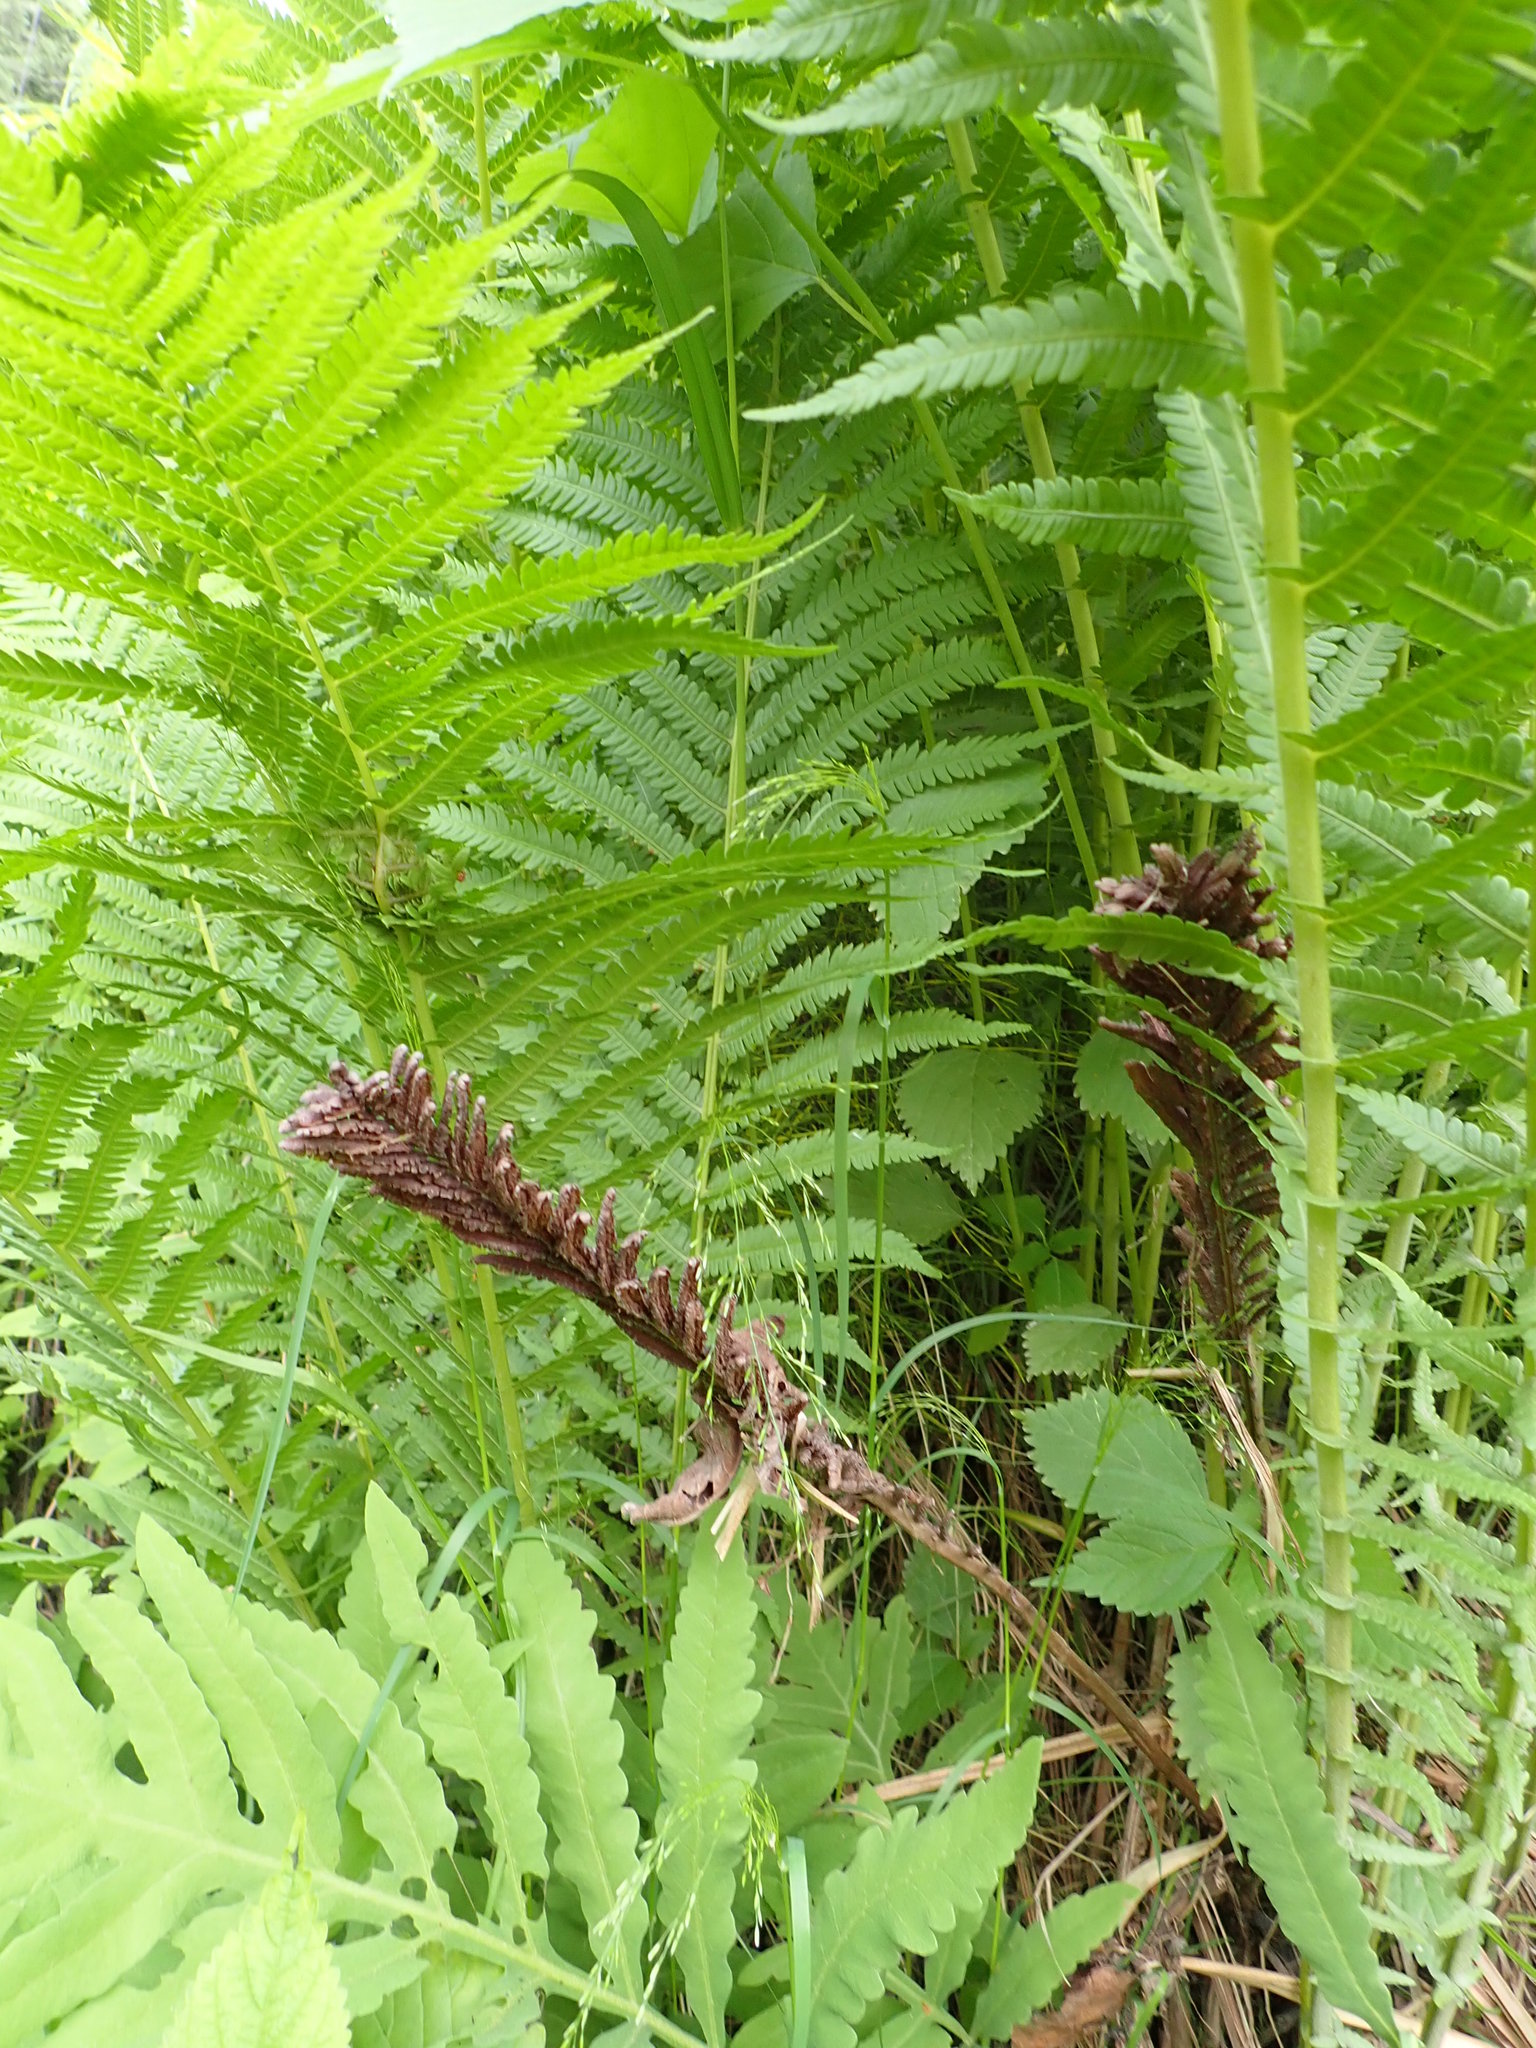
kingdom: Plantae
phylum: Tracheophyta
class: Polypodiopsida
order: Polypodiales
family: Onocleaceae
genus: Matteuccia
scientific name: Matteuccia struthiopteris
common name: Ostrich fern
